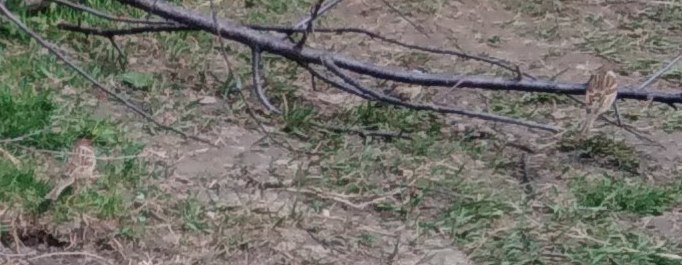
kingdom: Animalia
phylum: Chordata
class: Aves
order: Passeriformes
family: Passeridae
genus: Passer
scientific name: Passer montanus
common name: Eurasian tree sparrow
